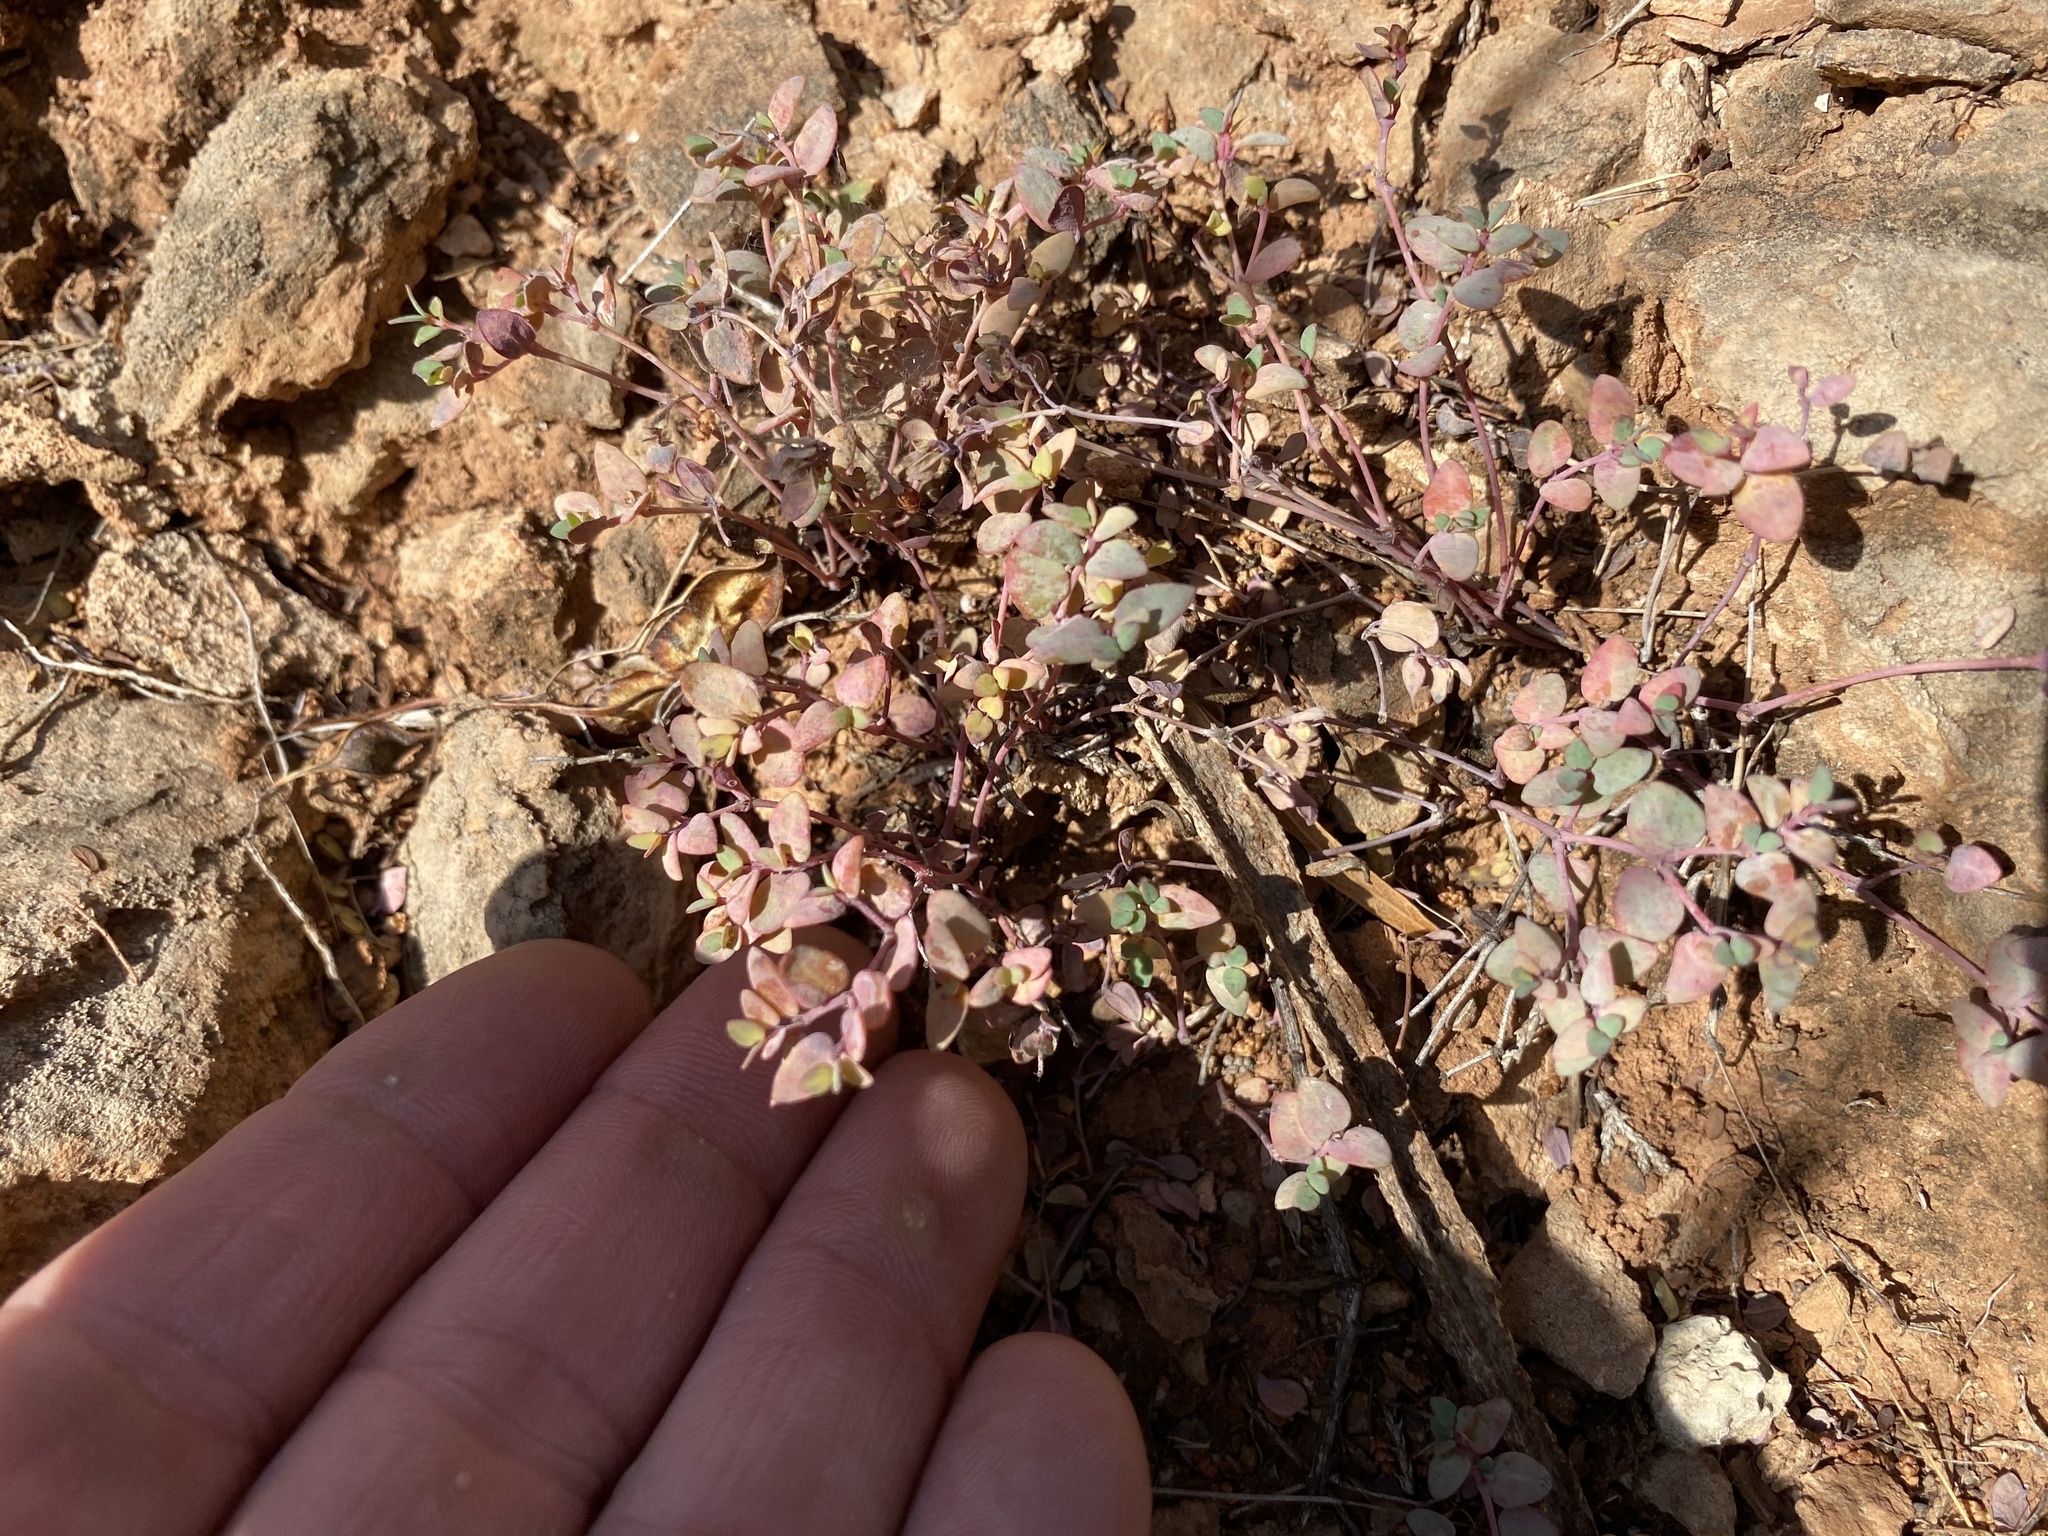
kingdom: Plantae
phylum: Tracheophyta
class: Magnoliopsida
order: Malpighiales
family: Euphorbiaceae
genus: Euphorbia
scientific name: Euphorbia fendleri
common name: Fendler's euphorbia
